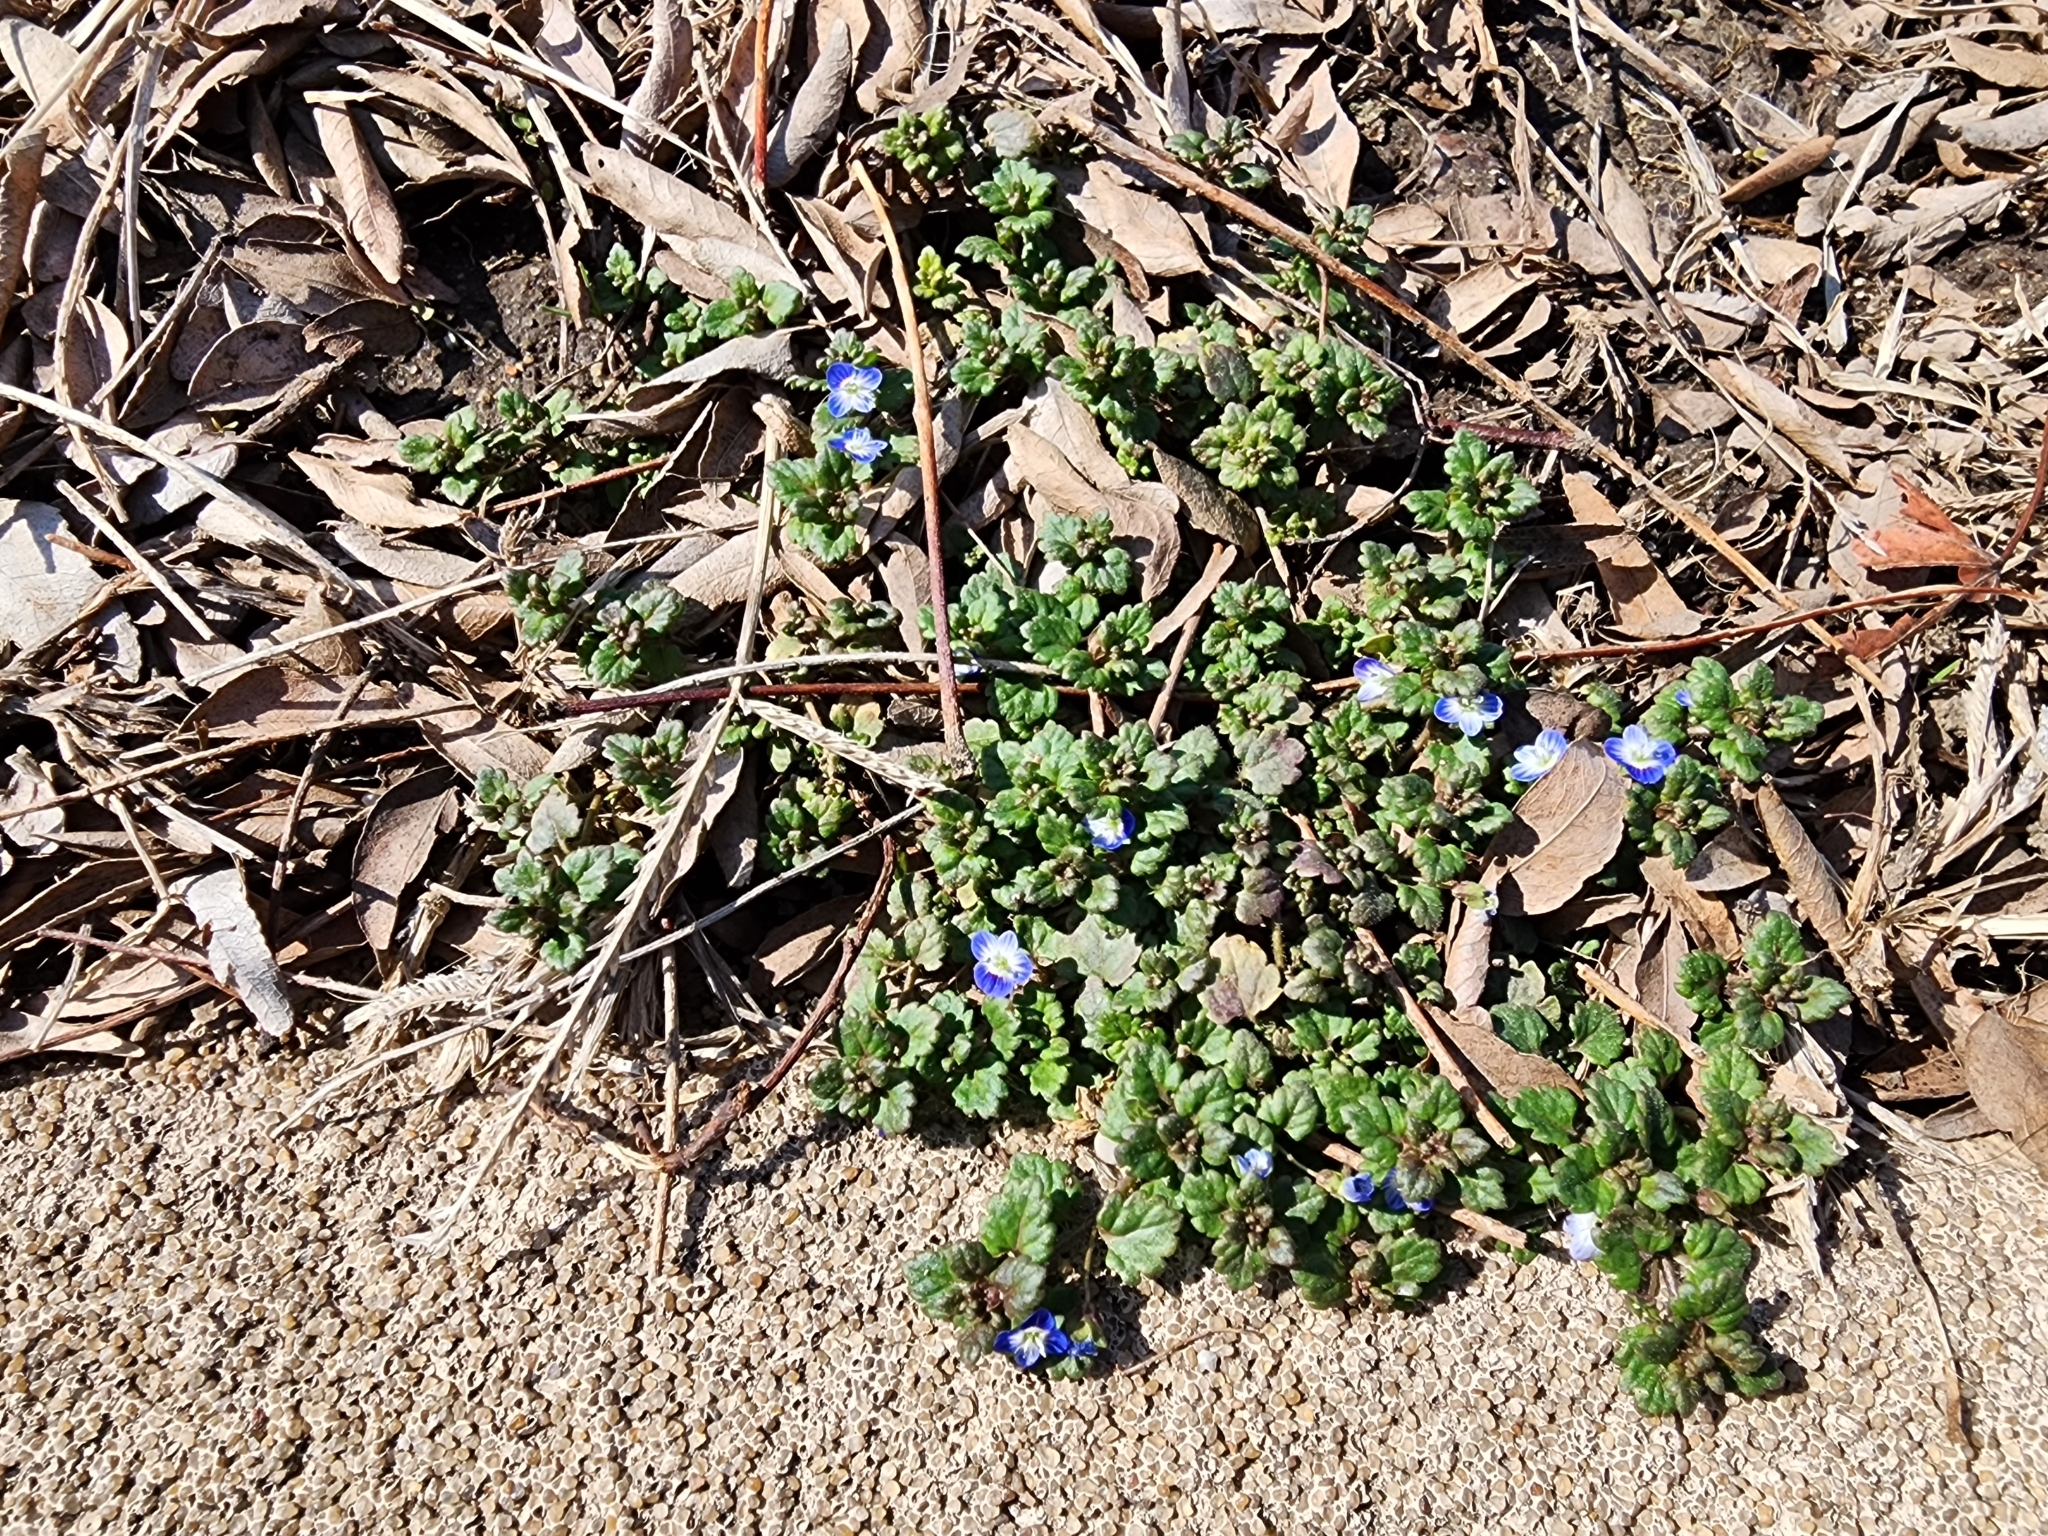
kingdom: Plantae
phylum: Tracheophyta
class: Magnoliopsida
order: Lamiales
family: Plantaginaceae
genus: Veronica
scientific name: Veronica polita
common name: Grey field-speedwell
